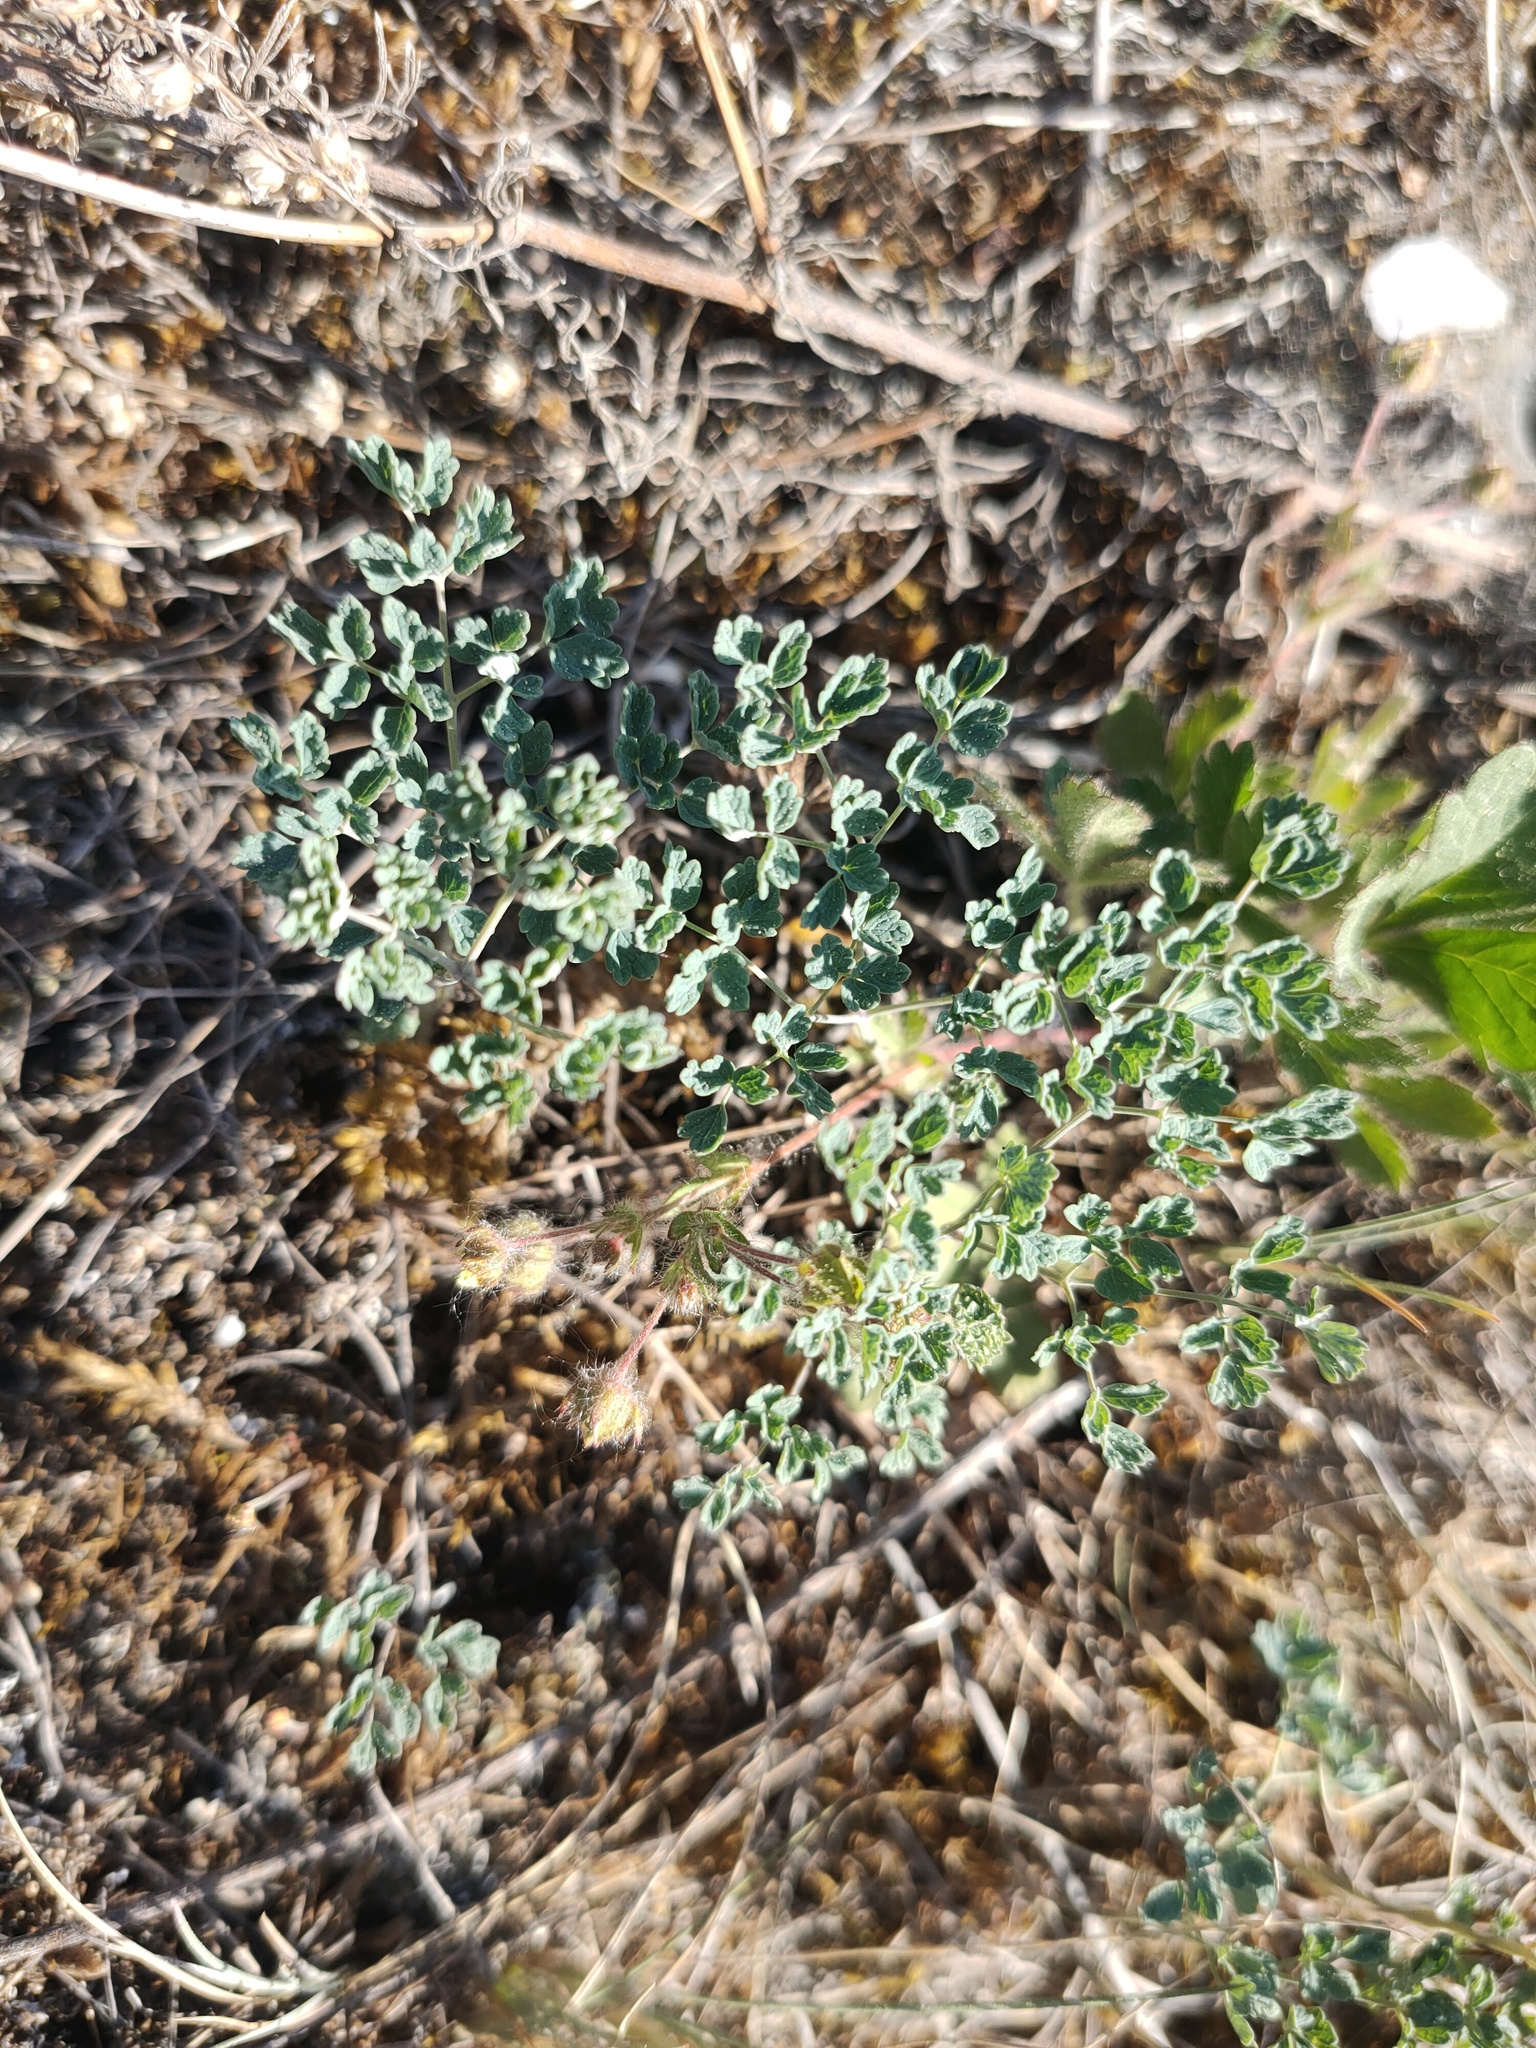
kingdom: Plantae
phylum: Tracheophyta
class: Magnoliopsida
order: Ranunculales
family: Ranunculaceae
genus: Thalictrum
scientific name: Thalictrum minus
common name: Lesser meadow-rue
